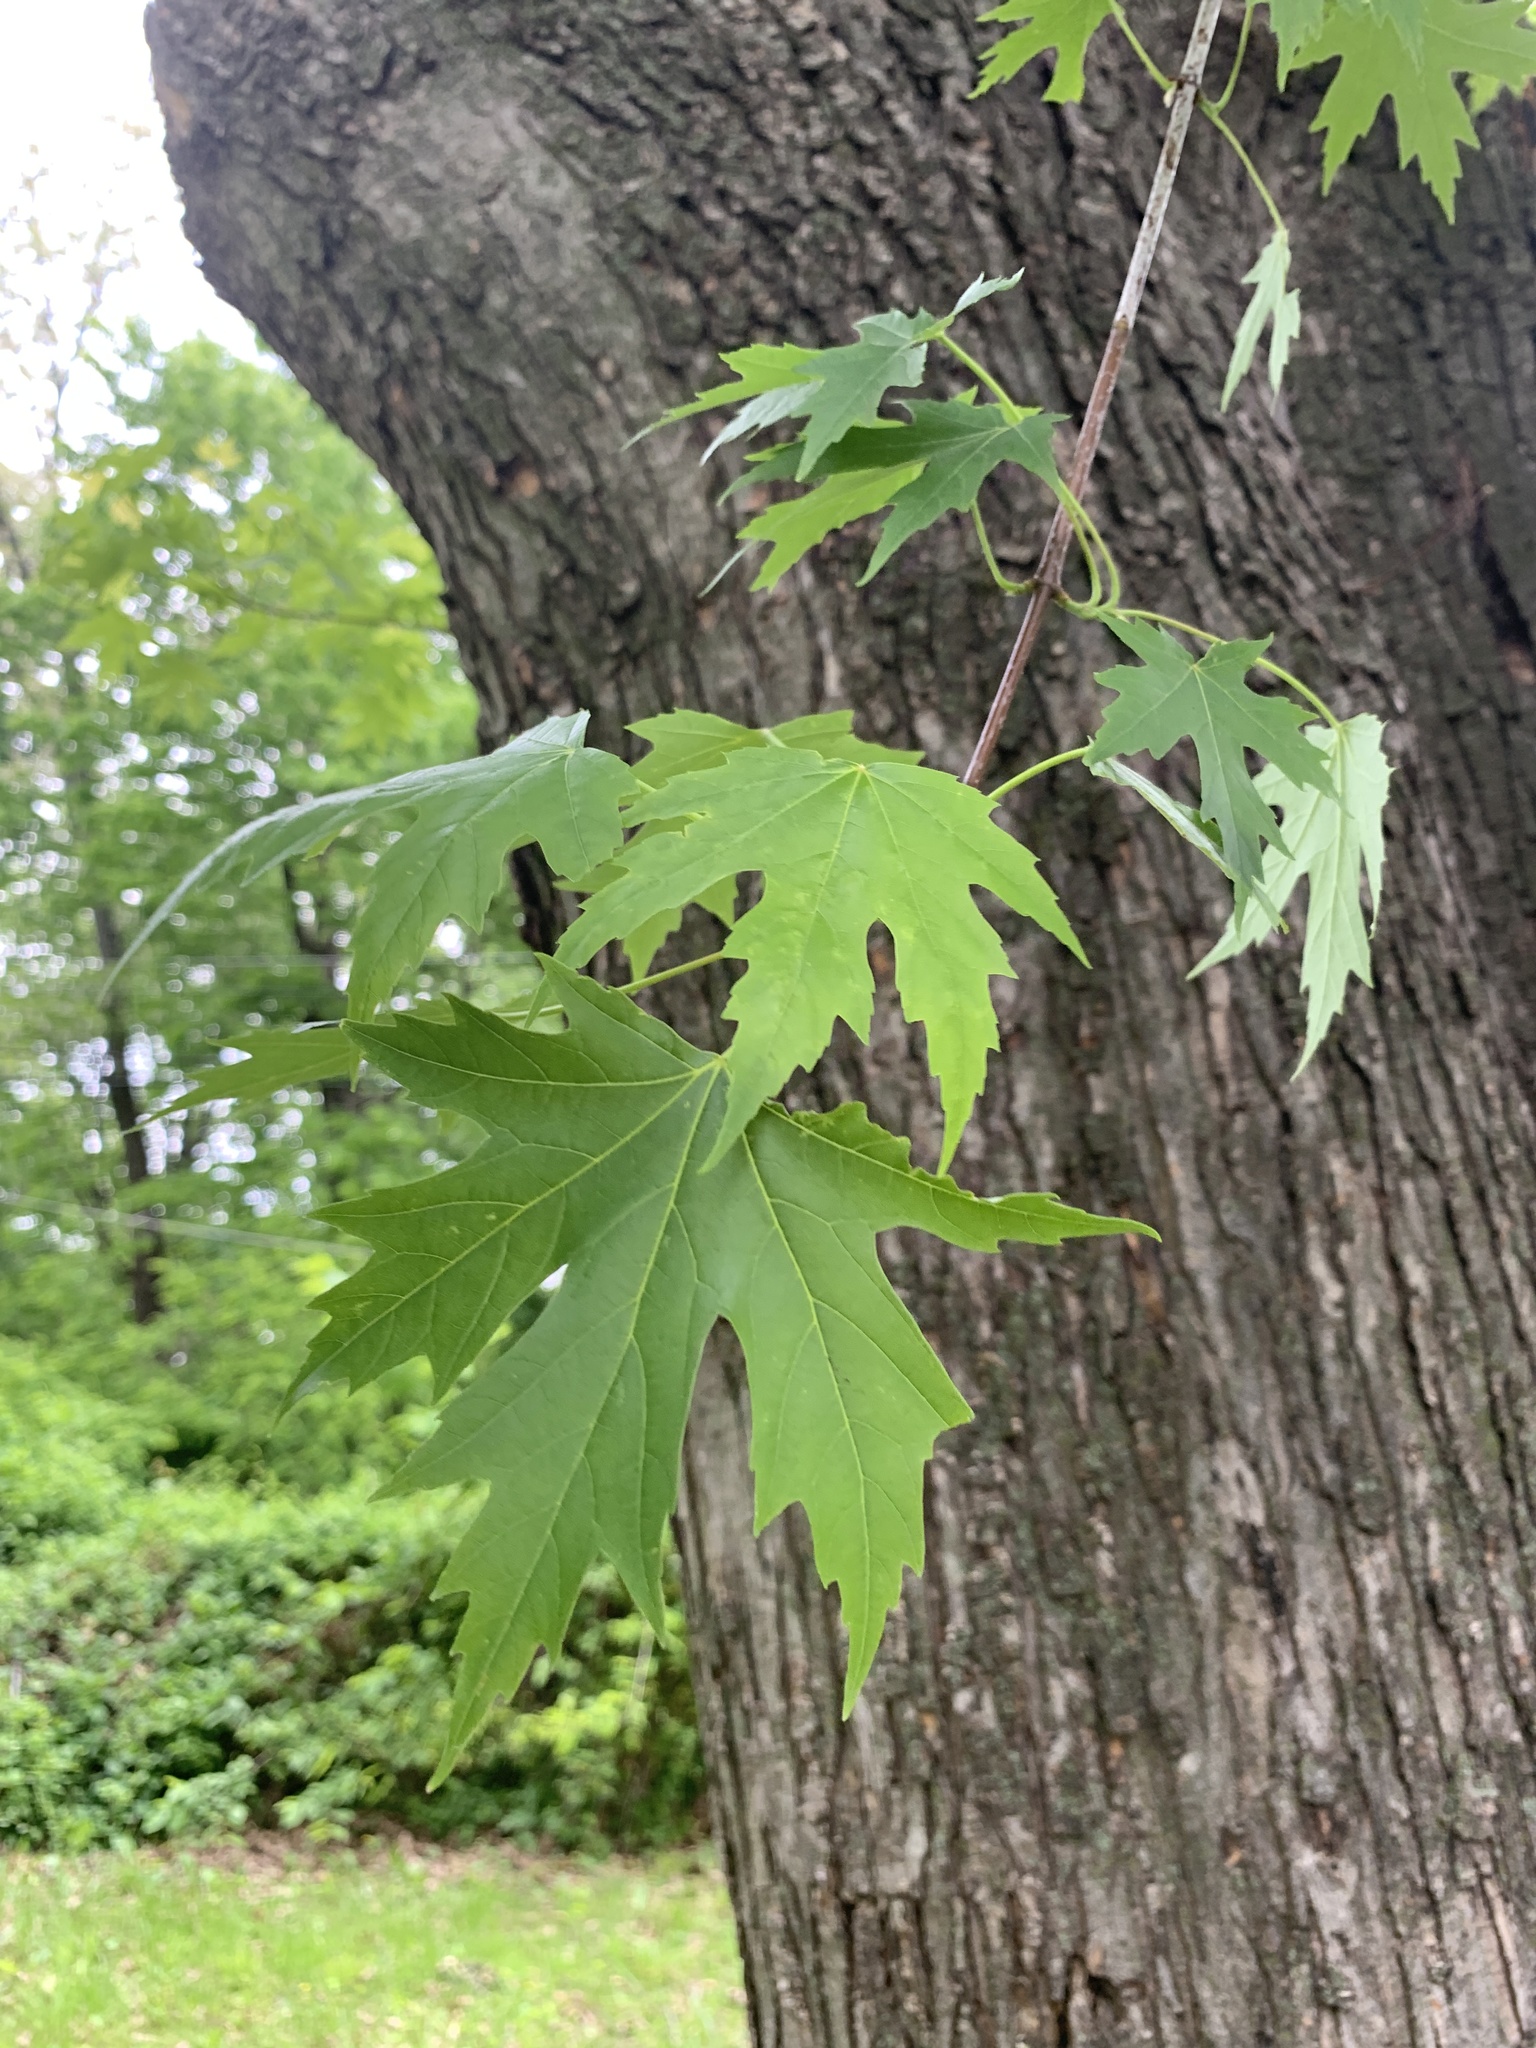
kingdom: Plantae
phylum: Tracheophyta
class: Magnoliopsida
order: Sapindales
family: Sapindaceae
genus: Acer
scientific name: Acer saccharinum
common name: Silver maple
